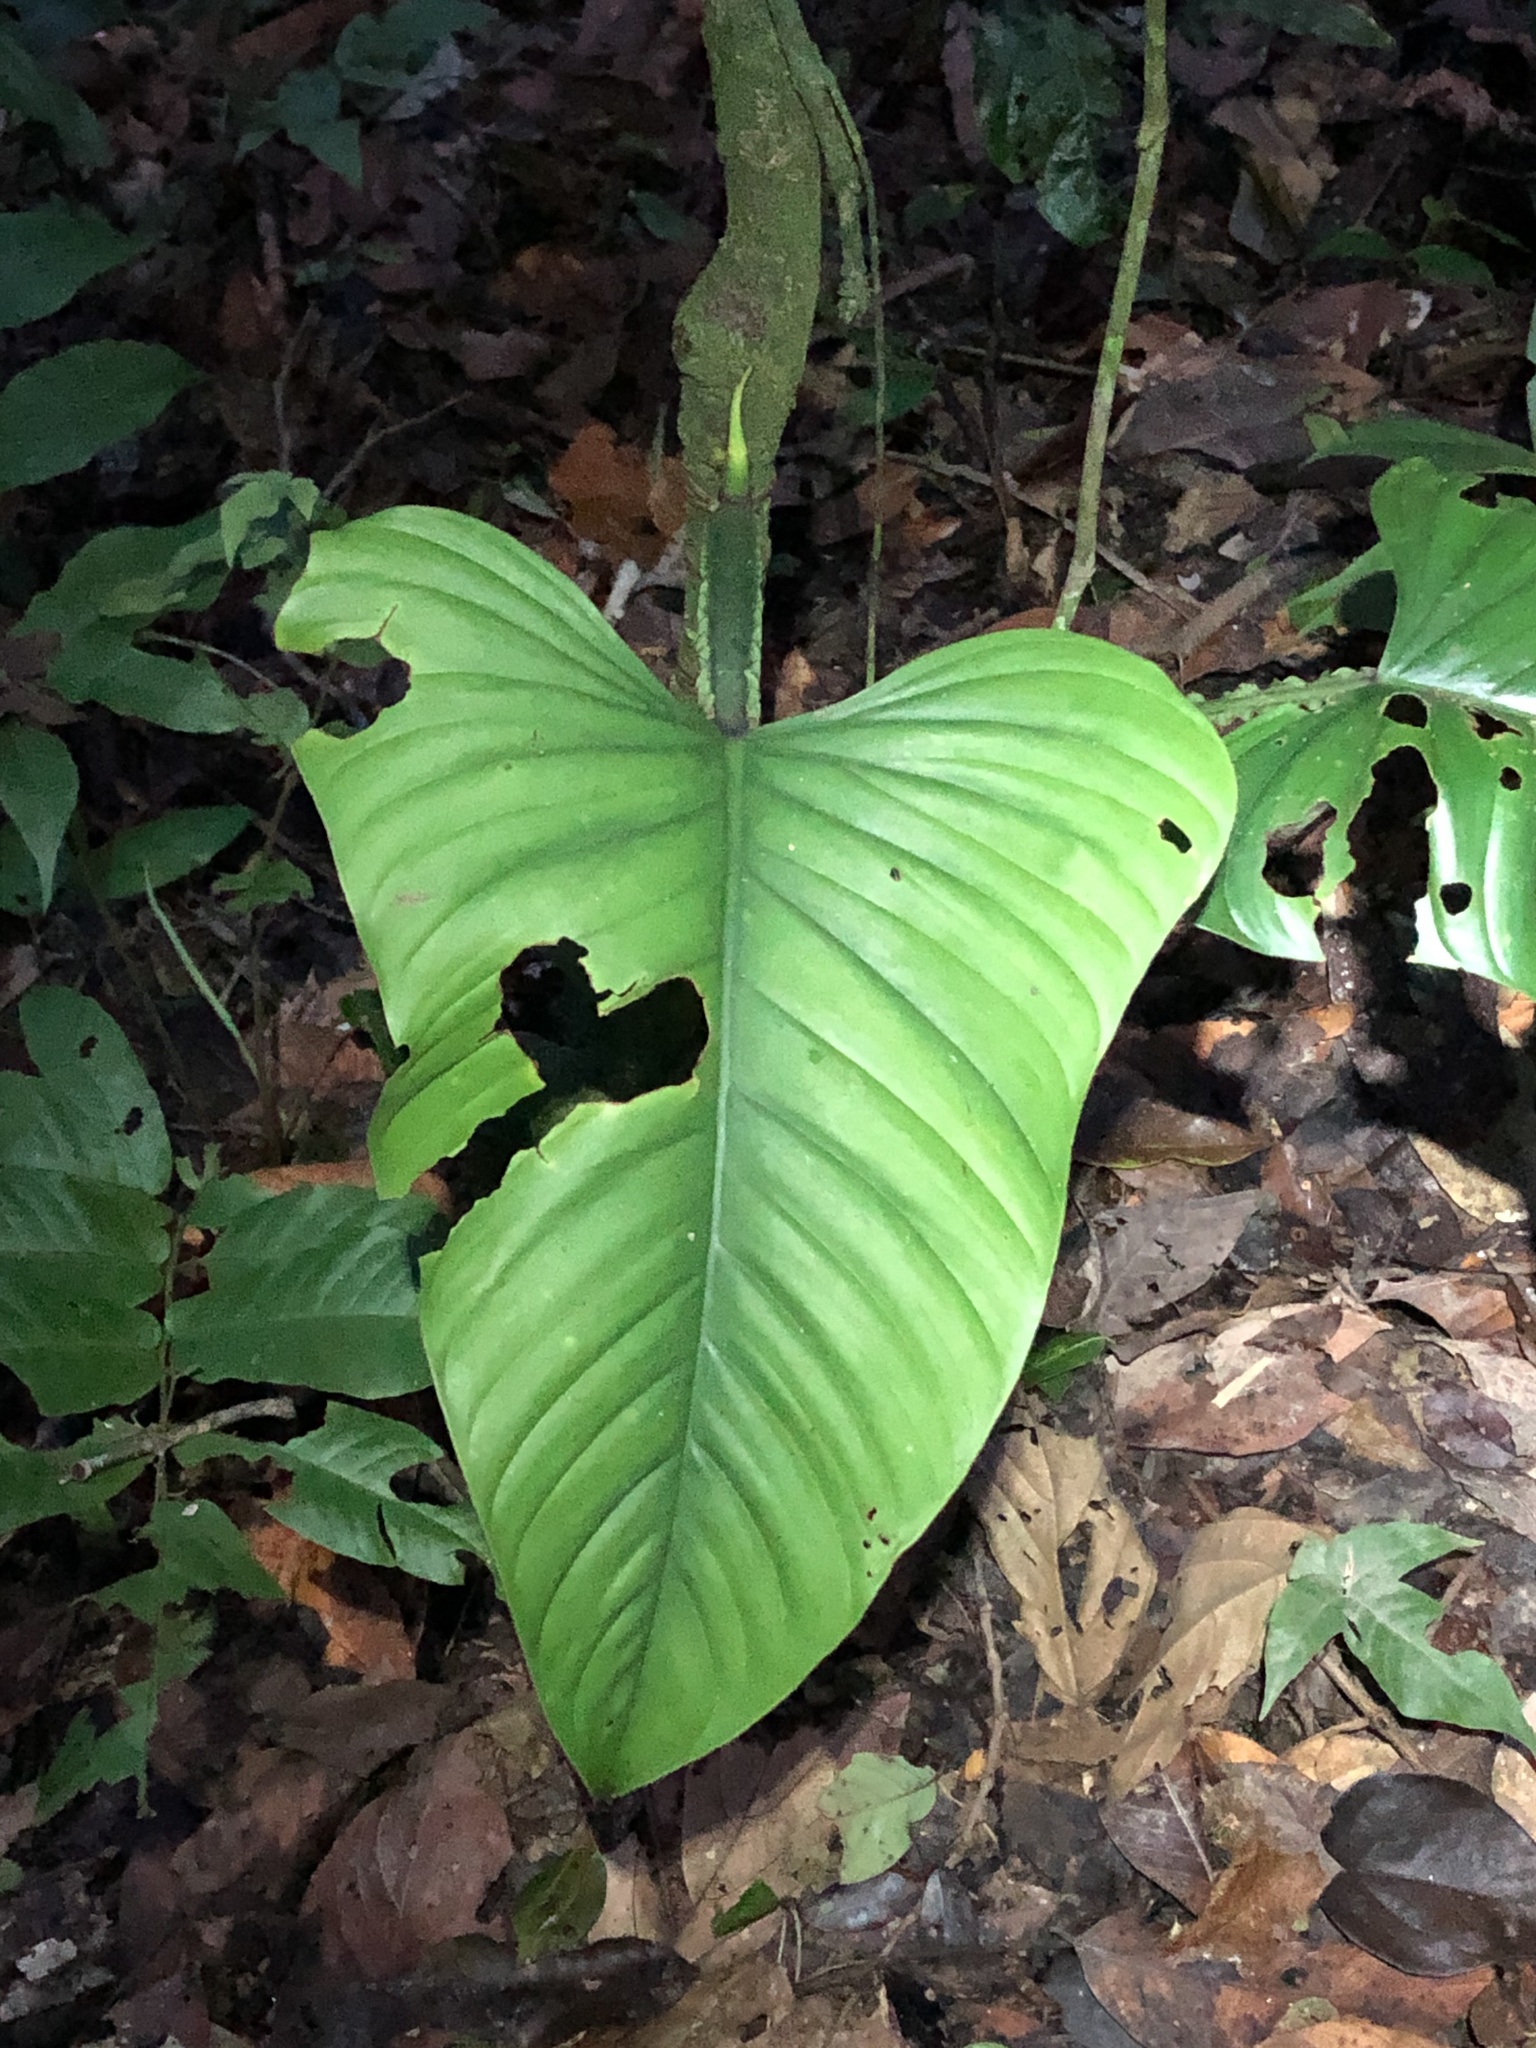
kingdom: Plantae
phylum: Tracheophyta
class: Liliopsida
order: Alismatales
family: Araceae
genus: Philodendron
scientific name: Philodendron ernestii
